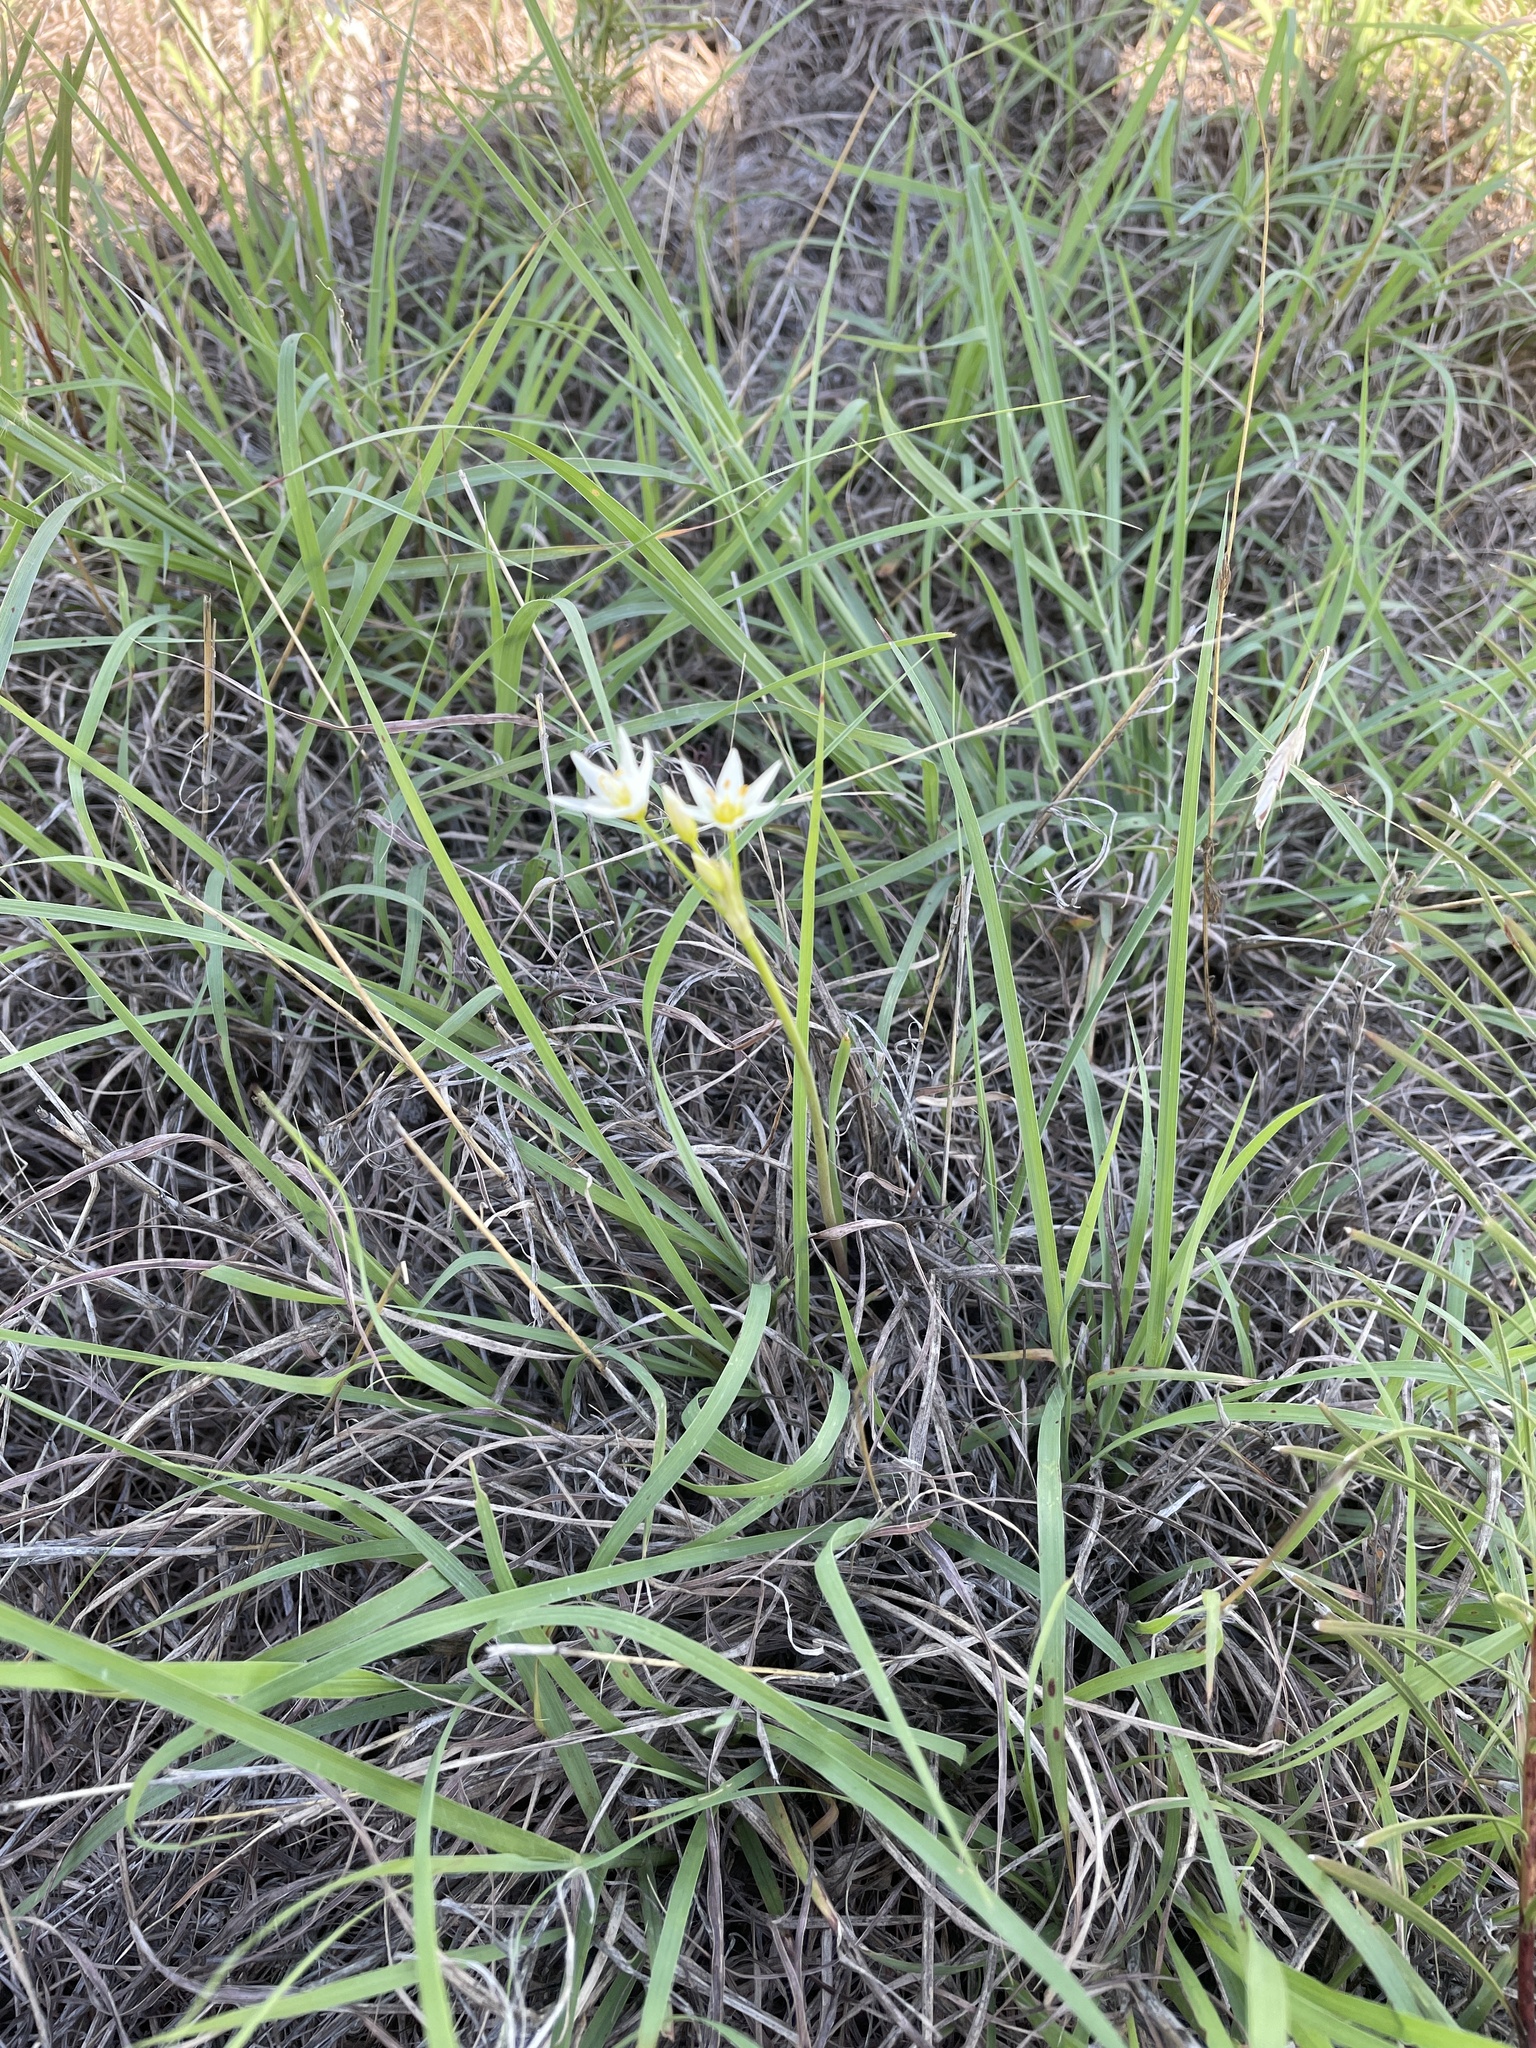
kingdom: Plantae
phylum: Tracheophyta
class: Liliopsida
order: Asparagales
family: Amaryllidaceae
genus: Nothoscordum
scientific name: Nothoscordum bivalve
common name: Crow-poison
